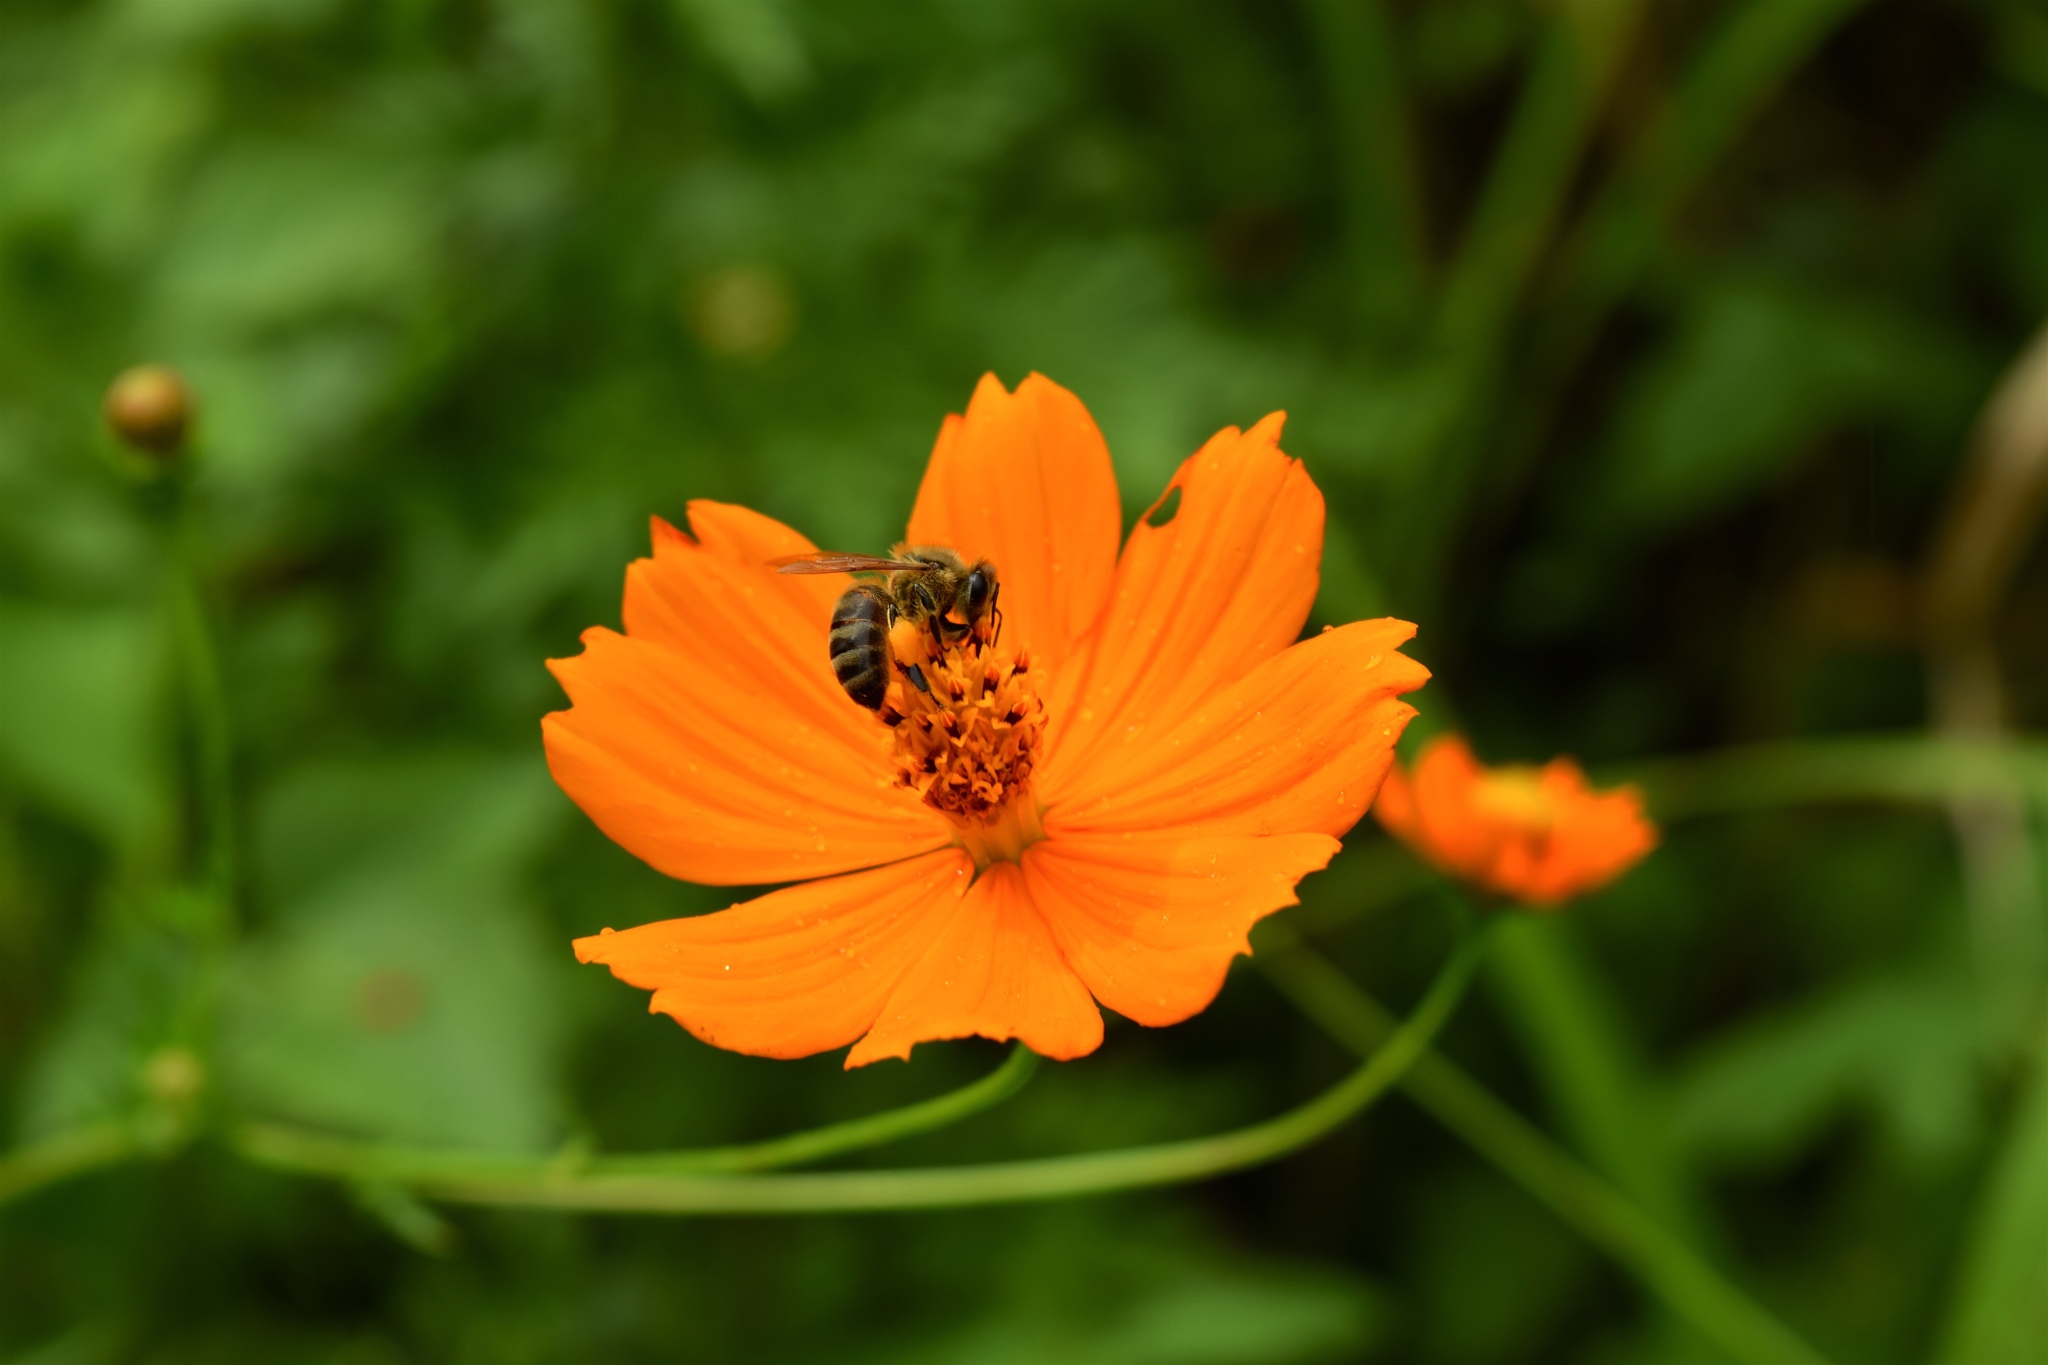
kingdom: Plantae
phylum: Tracheophyta
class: Magnoliopsida
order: Asterales
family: Asteraceae
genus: Cosmos
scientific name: Cosmos sulphureus
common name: Sulphur cosmos
